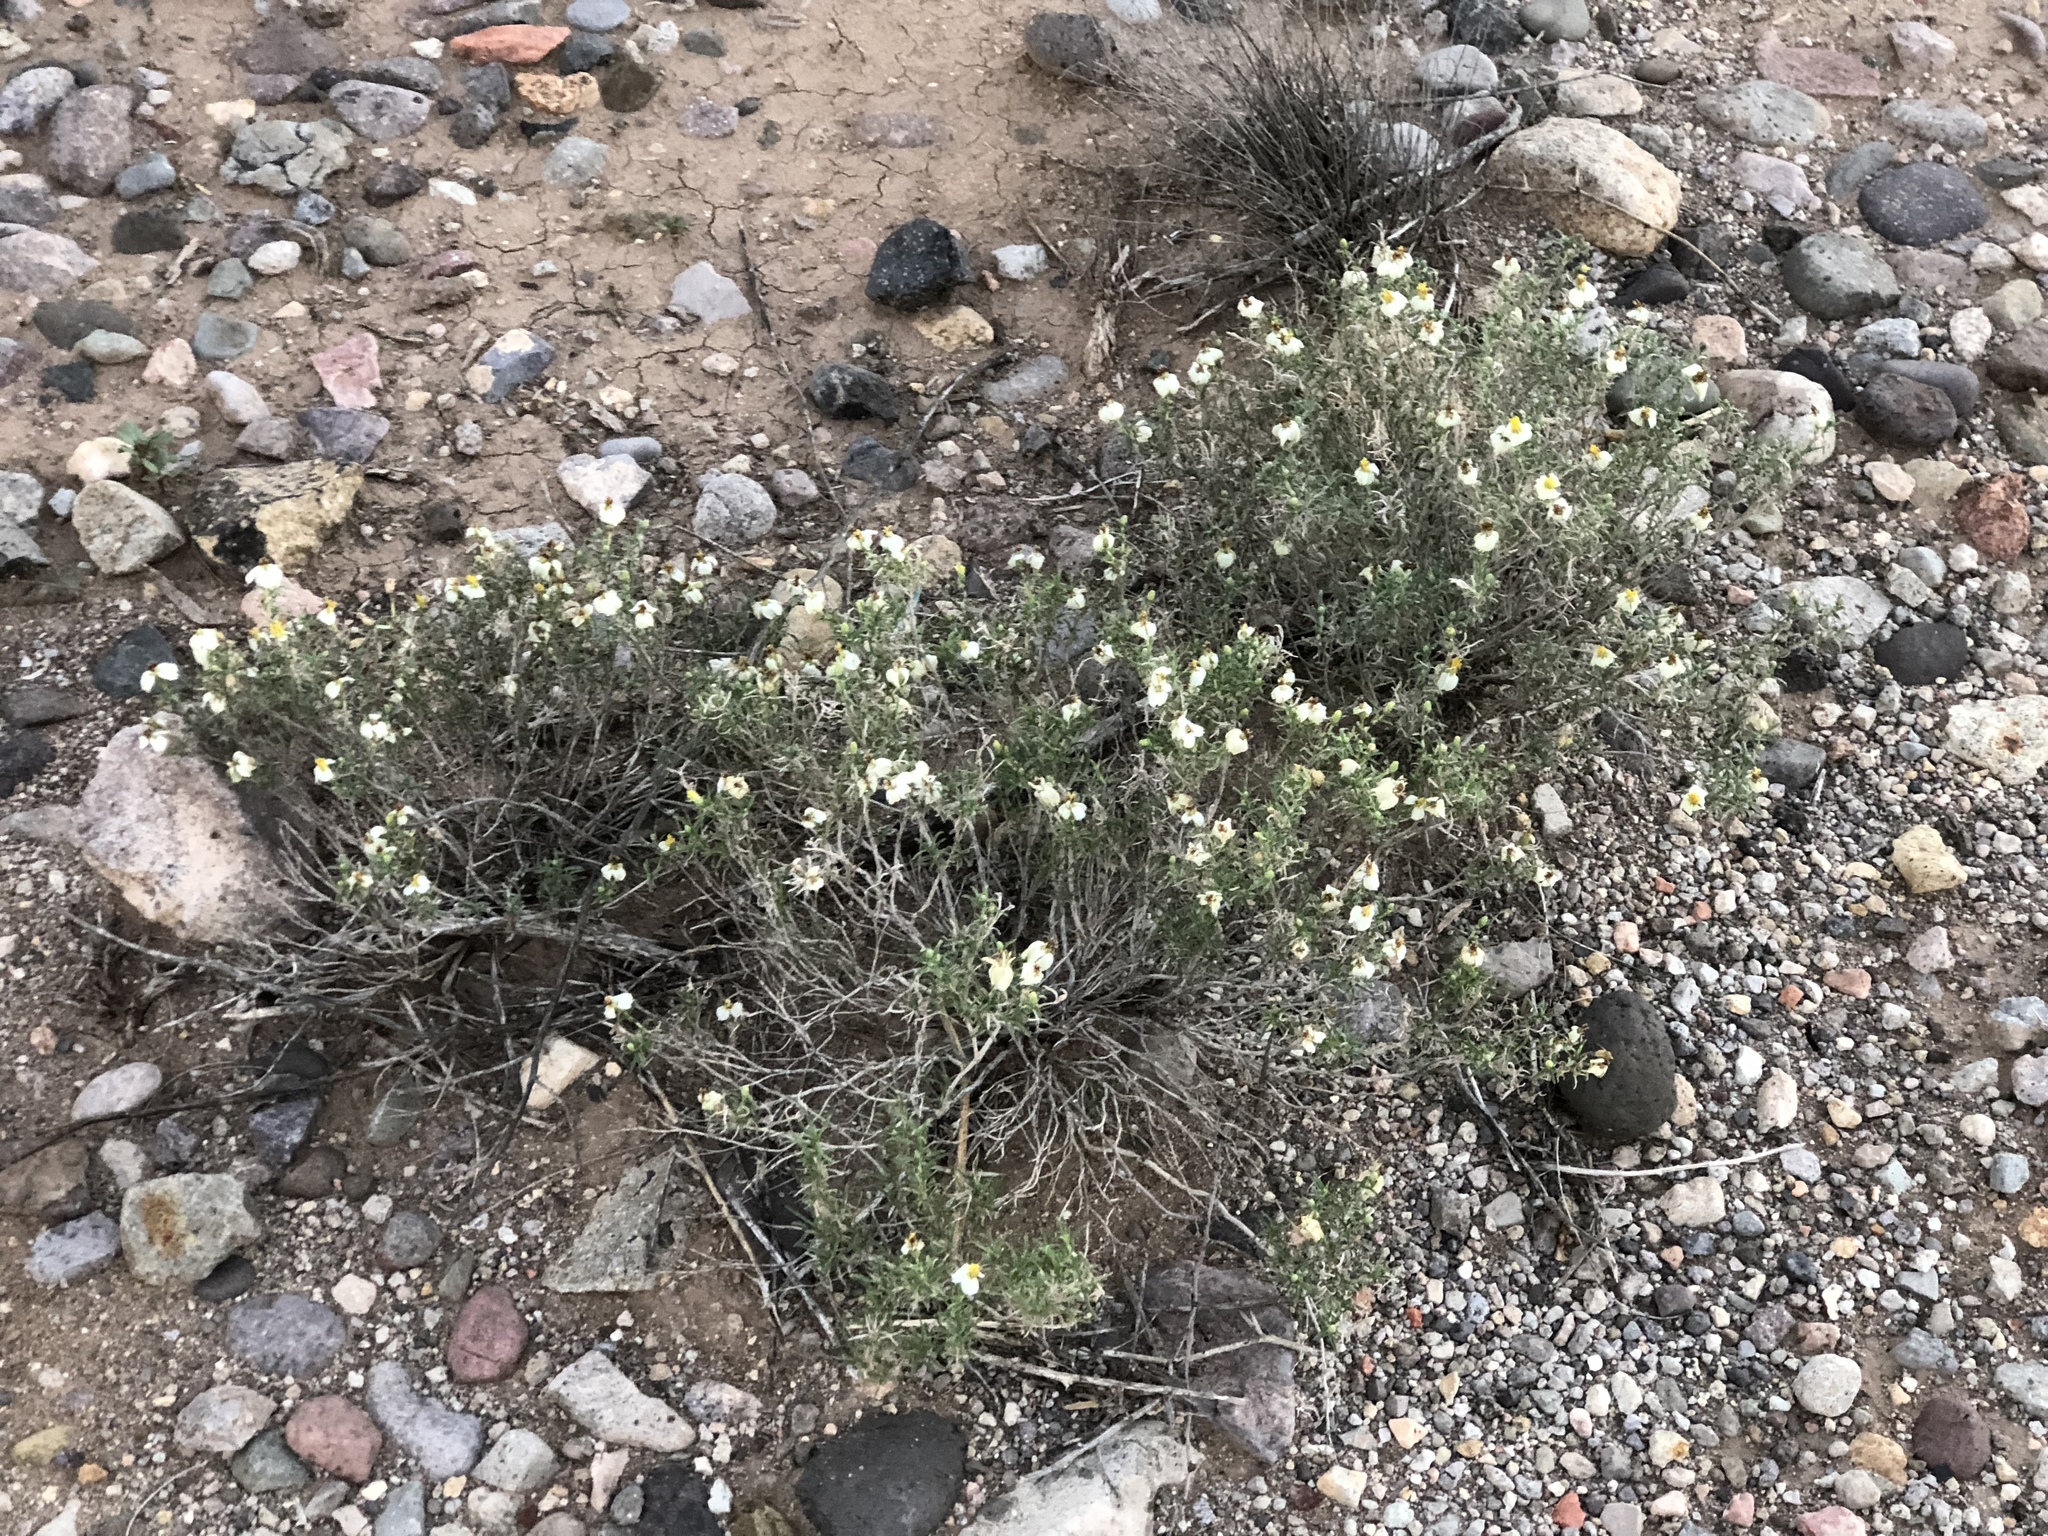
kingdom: Plantae
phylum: Tracheophyta
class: Magnoliopsida
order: Asterales
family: Asteraceae
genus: Zinnia
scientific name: Zinnia acerosa
